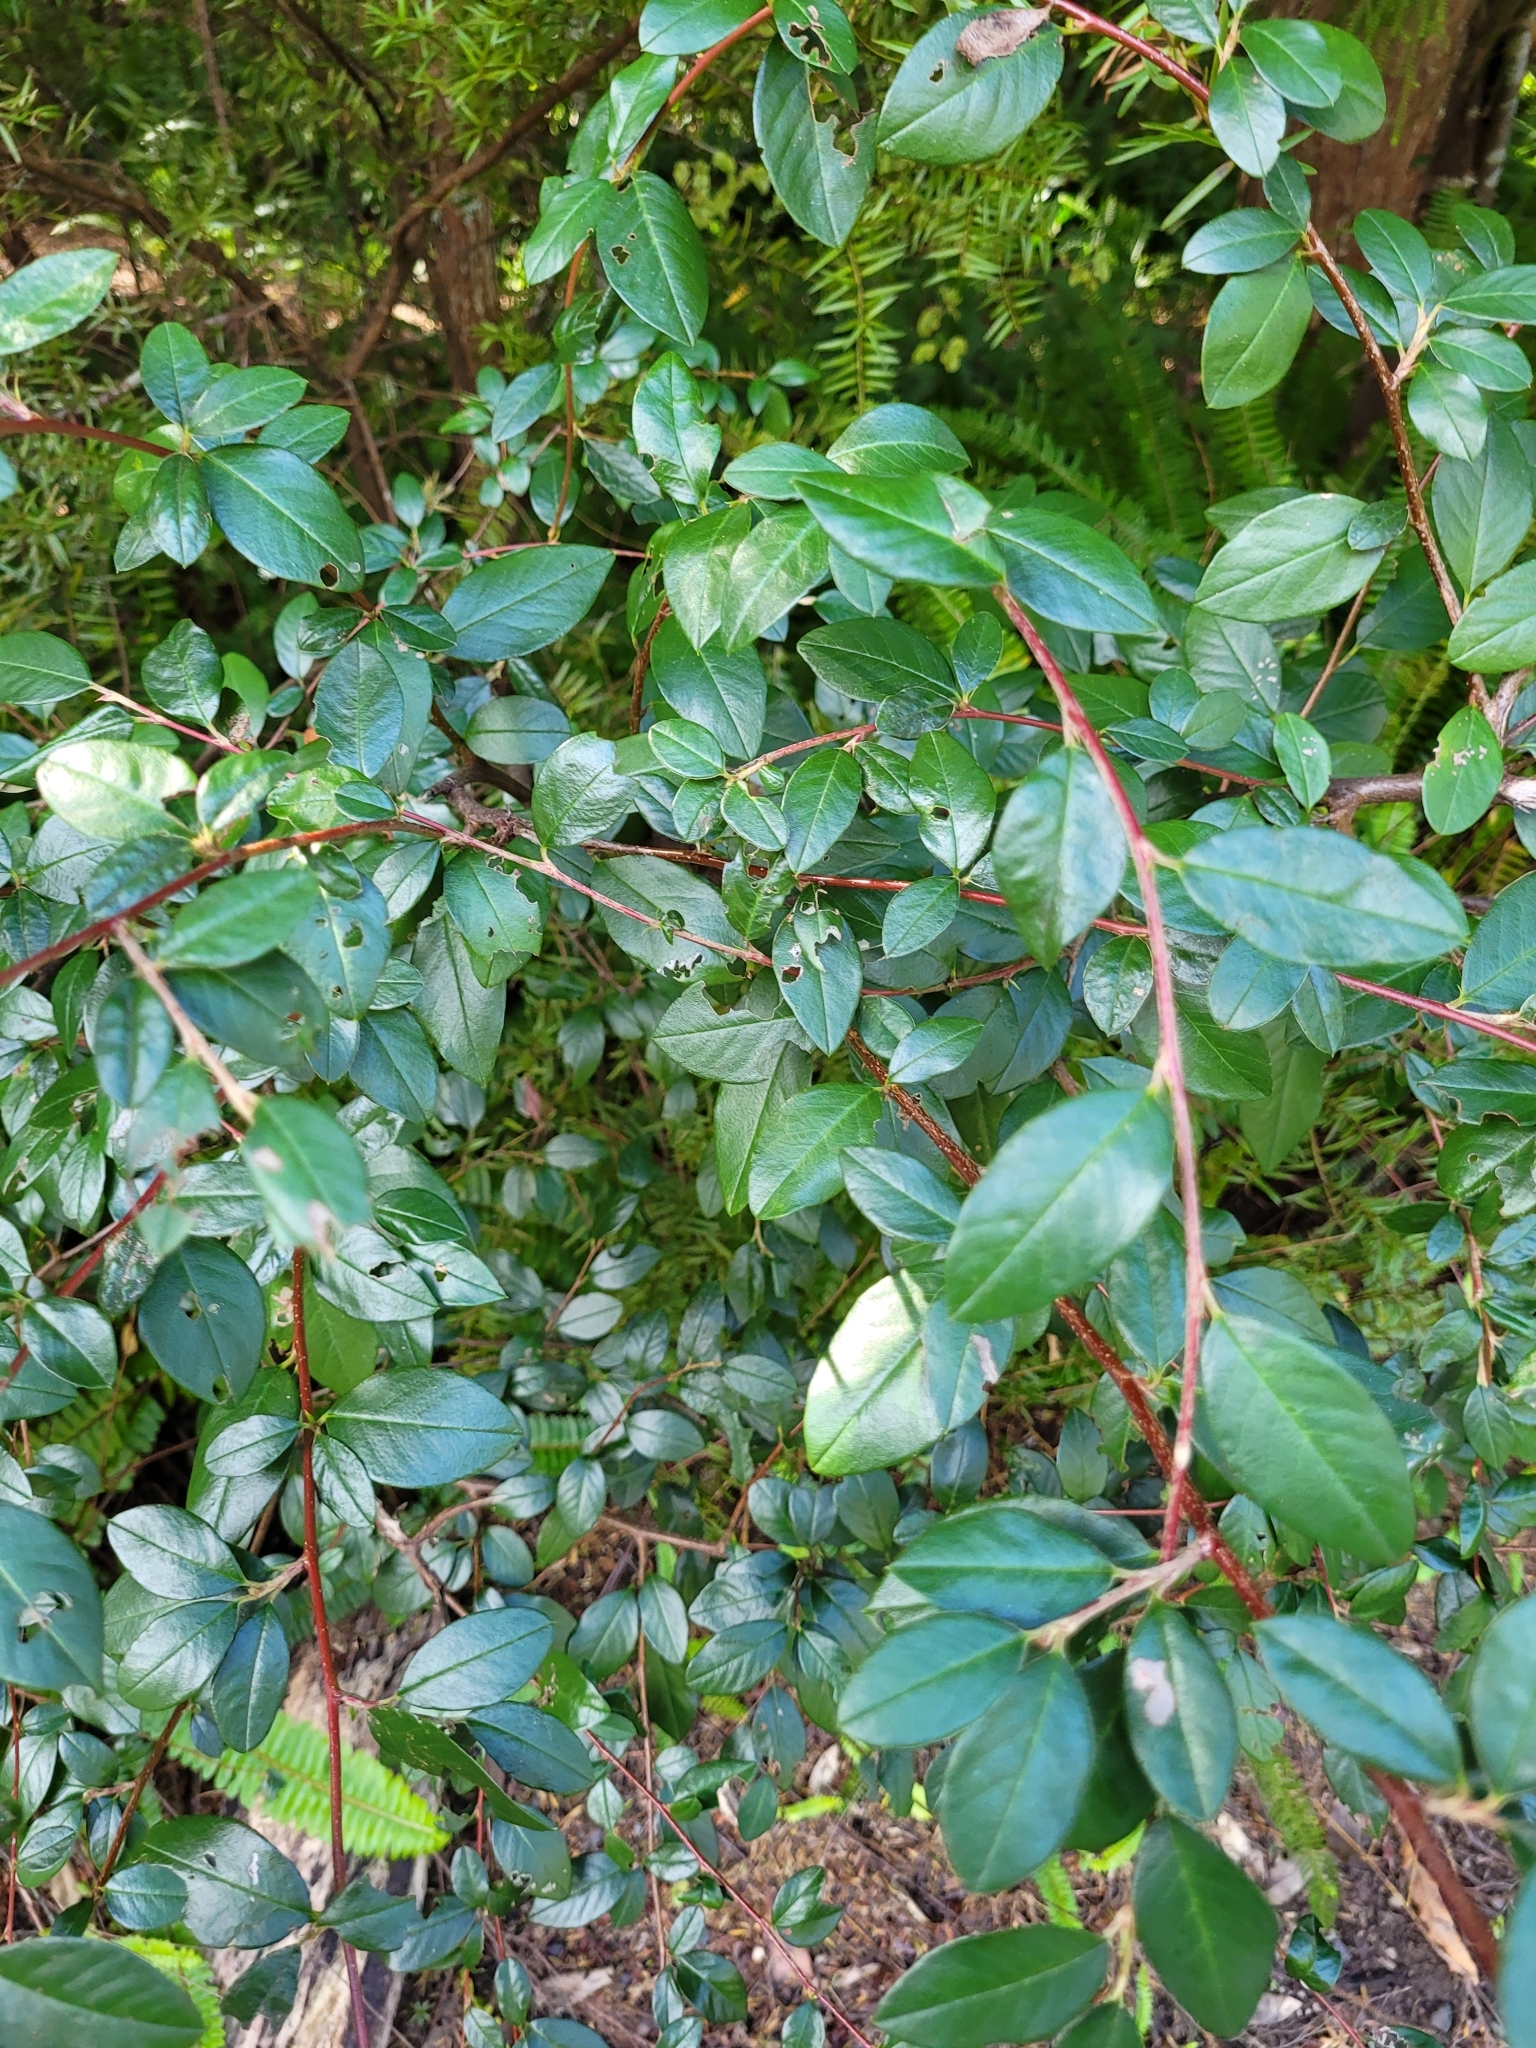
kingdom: Plantae
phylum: Tracheophyta
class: Magnoliopsida
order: Rosales
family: Rosaceae
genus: Cotoneaster
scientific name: Cotoneaster glaucophyllus
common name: Glaucous cotoneaster
